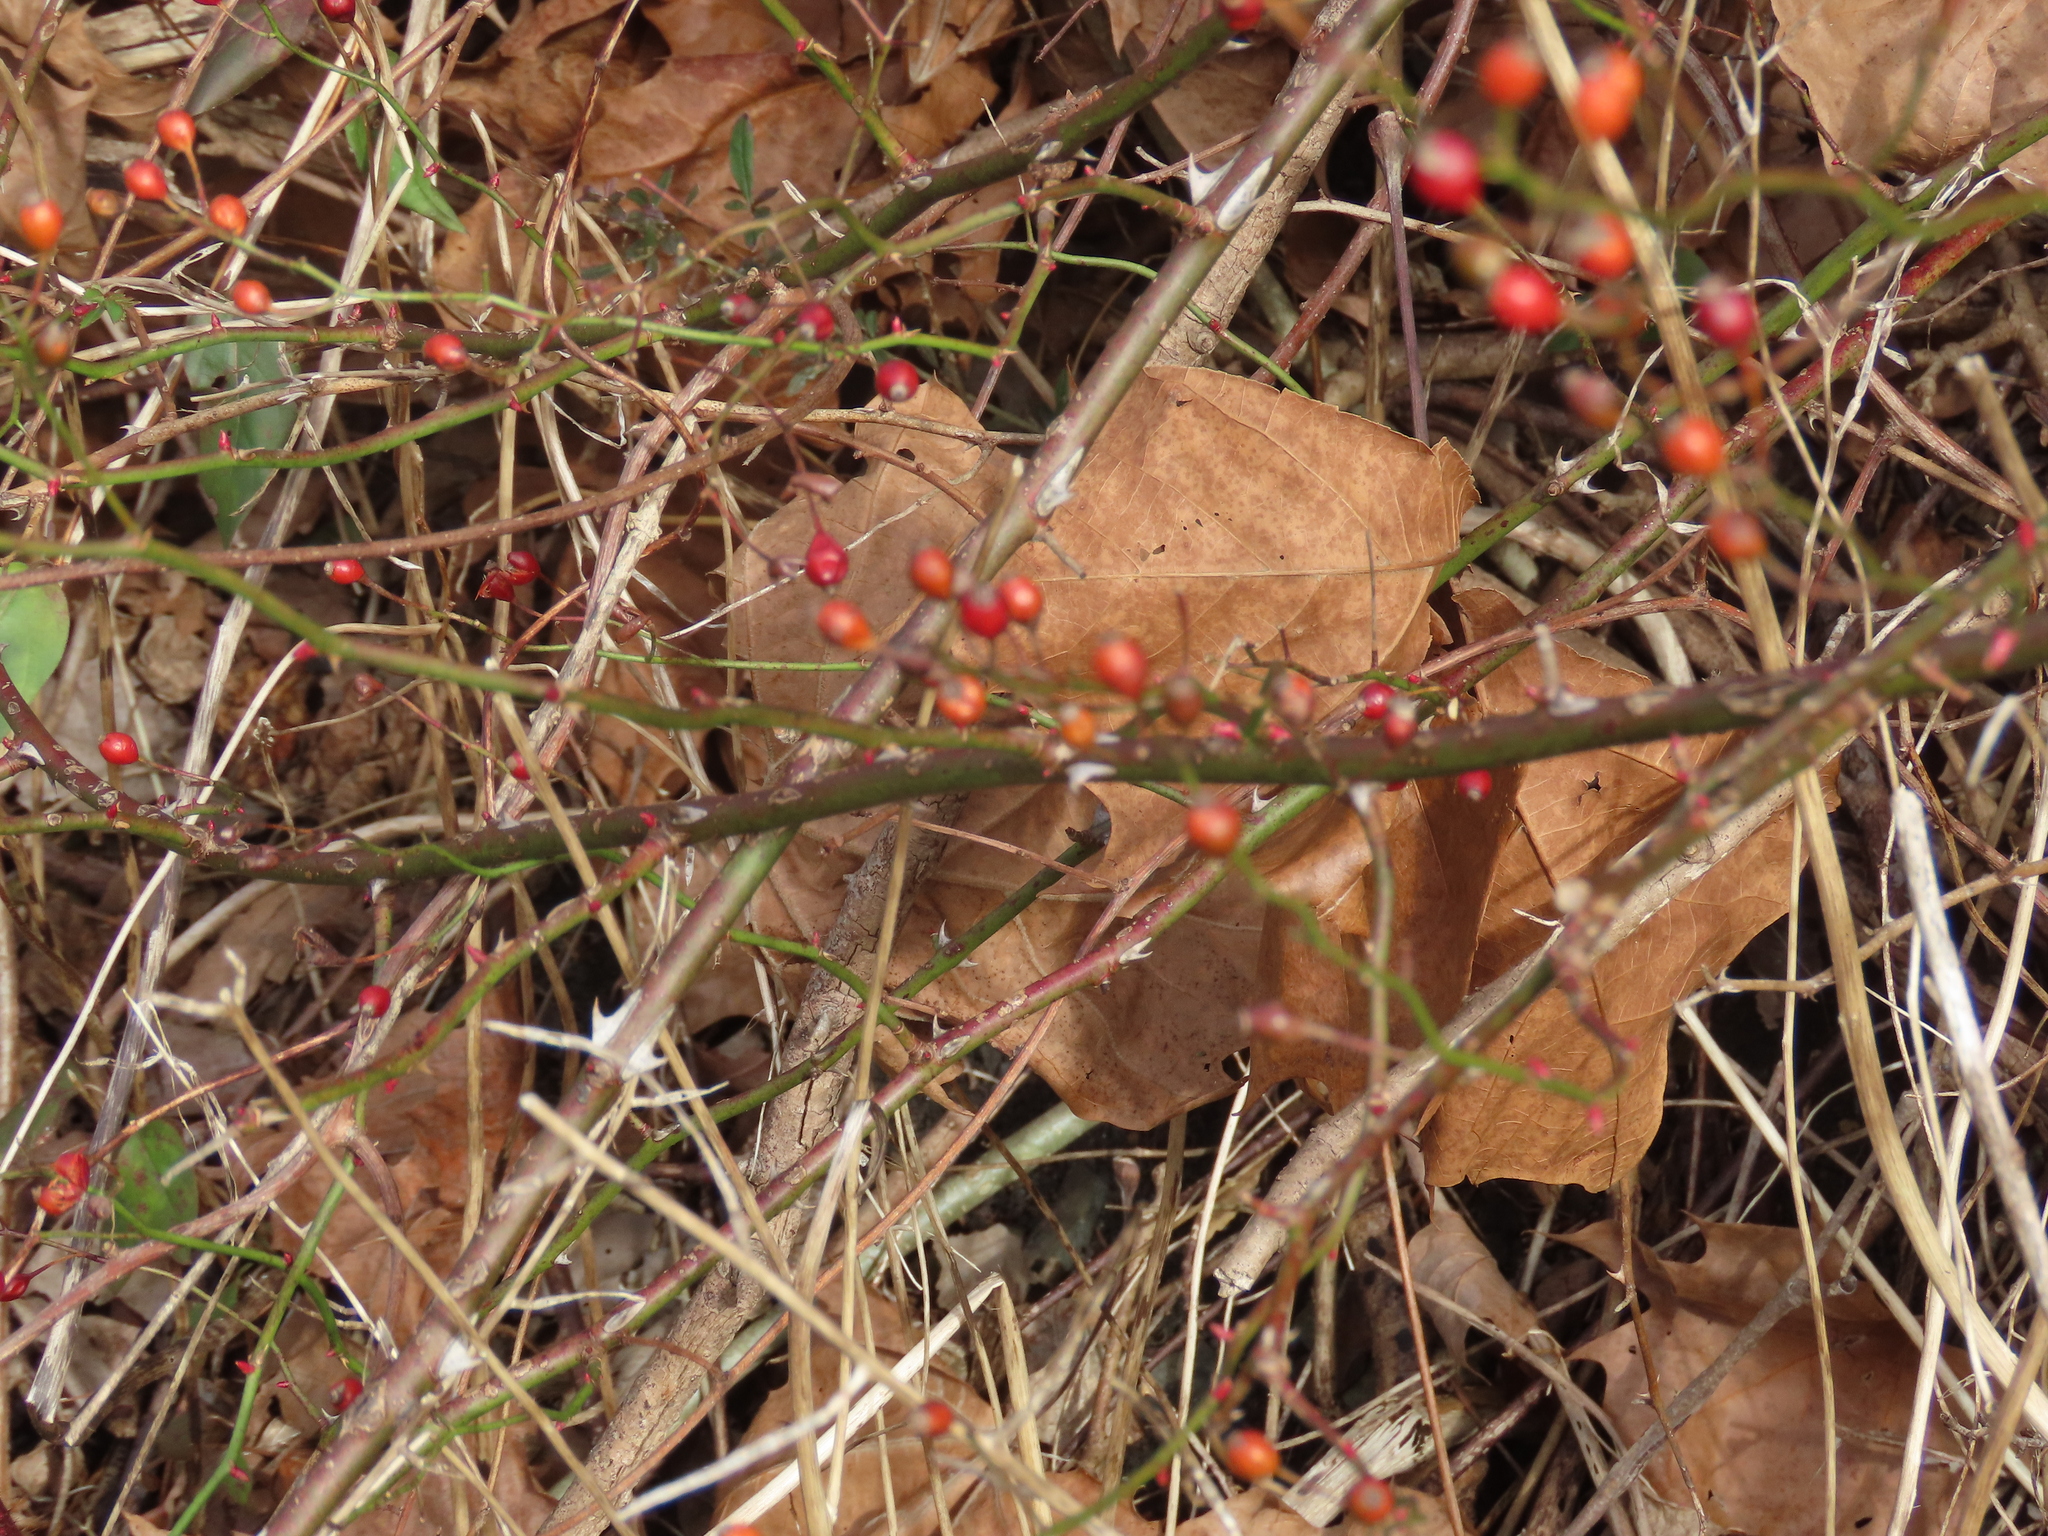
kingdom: Plantae
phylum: Tracheophyta
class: Magnoliopsida
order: Rosales
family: Rosaceae
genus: Rosa
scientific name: Rosa multiflora
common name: Multiflora rose
